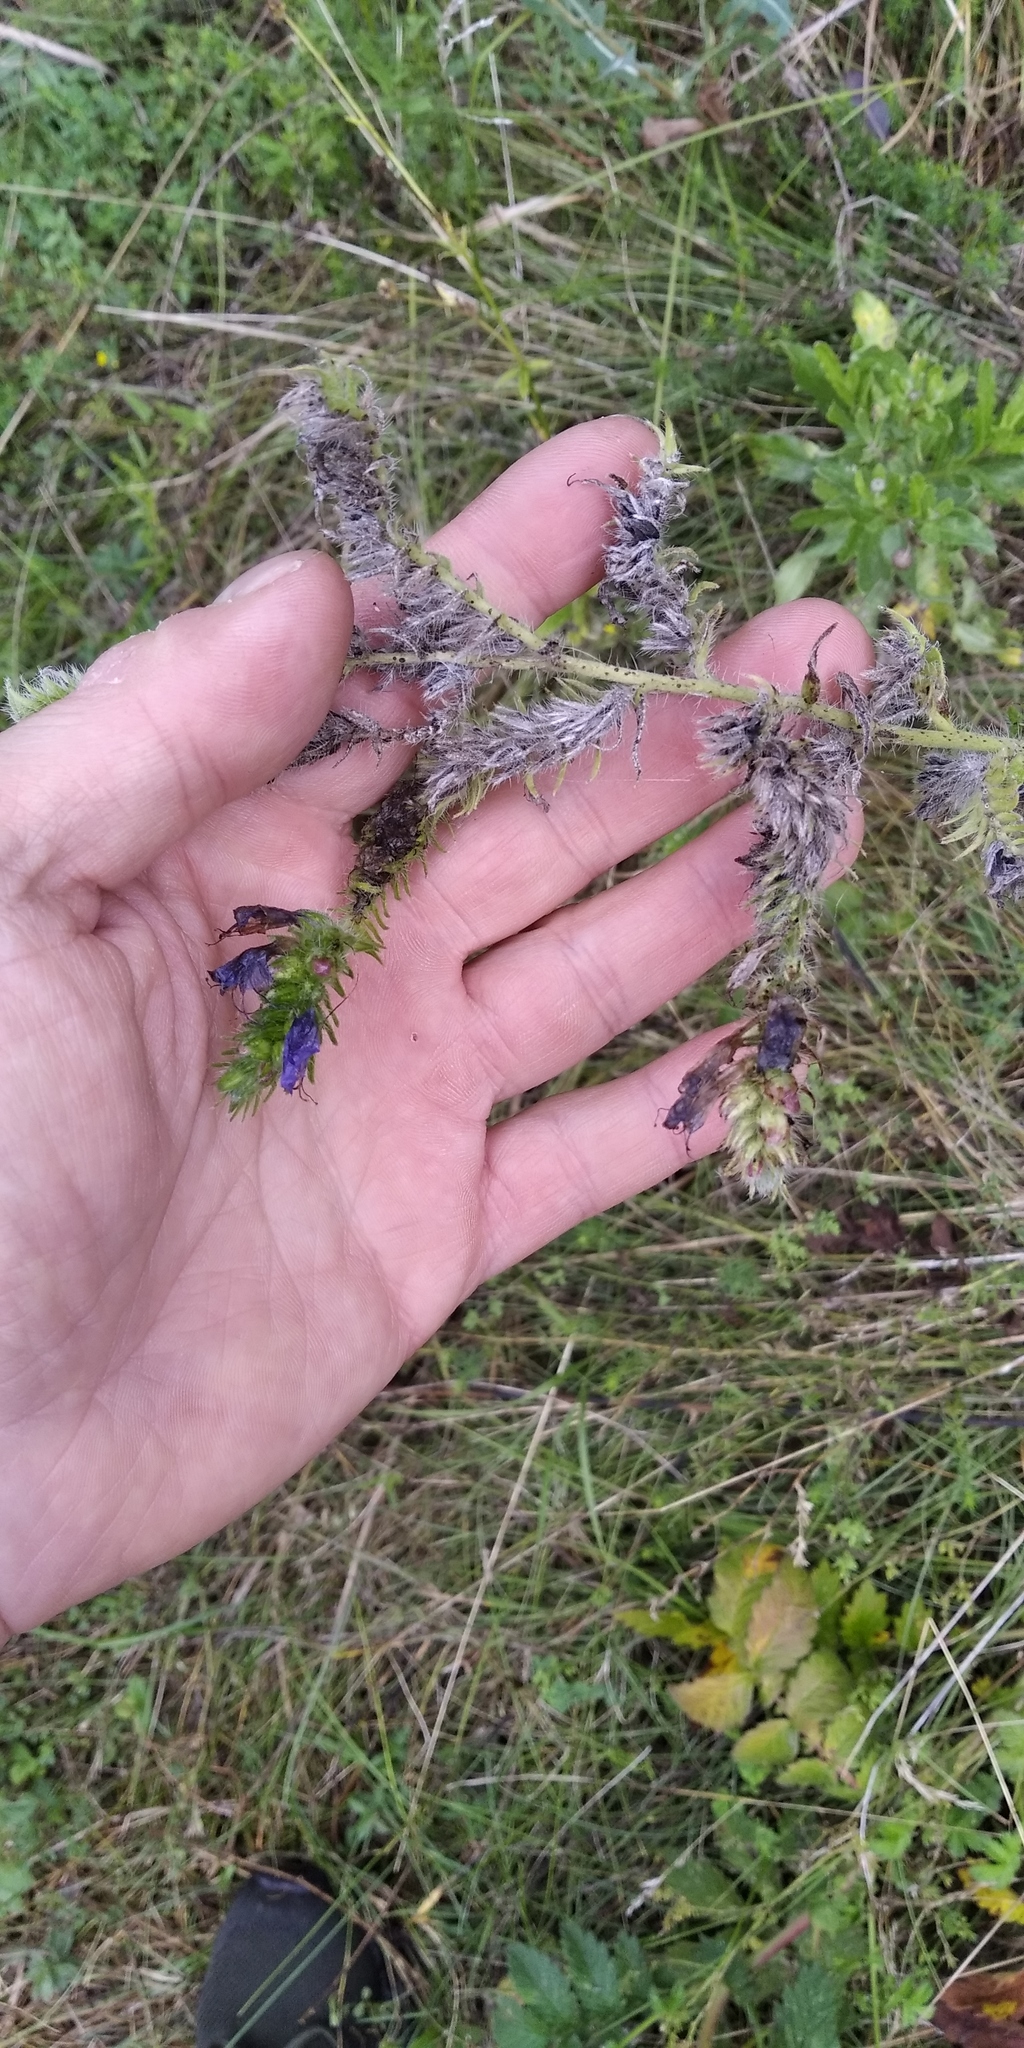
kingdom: Plantae
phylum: Tracheophyta
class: Magnoliopsida
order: Boraginales
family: Boraginaceae
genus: Echium
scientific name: Echium vulgare
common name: Common viper's bugloss
